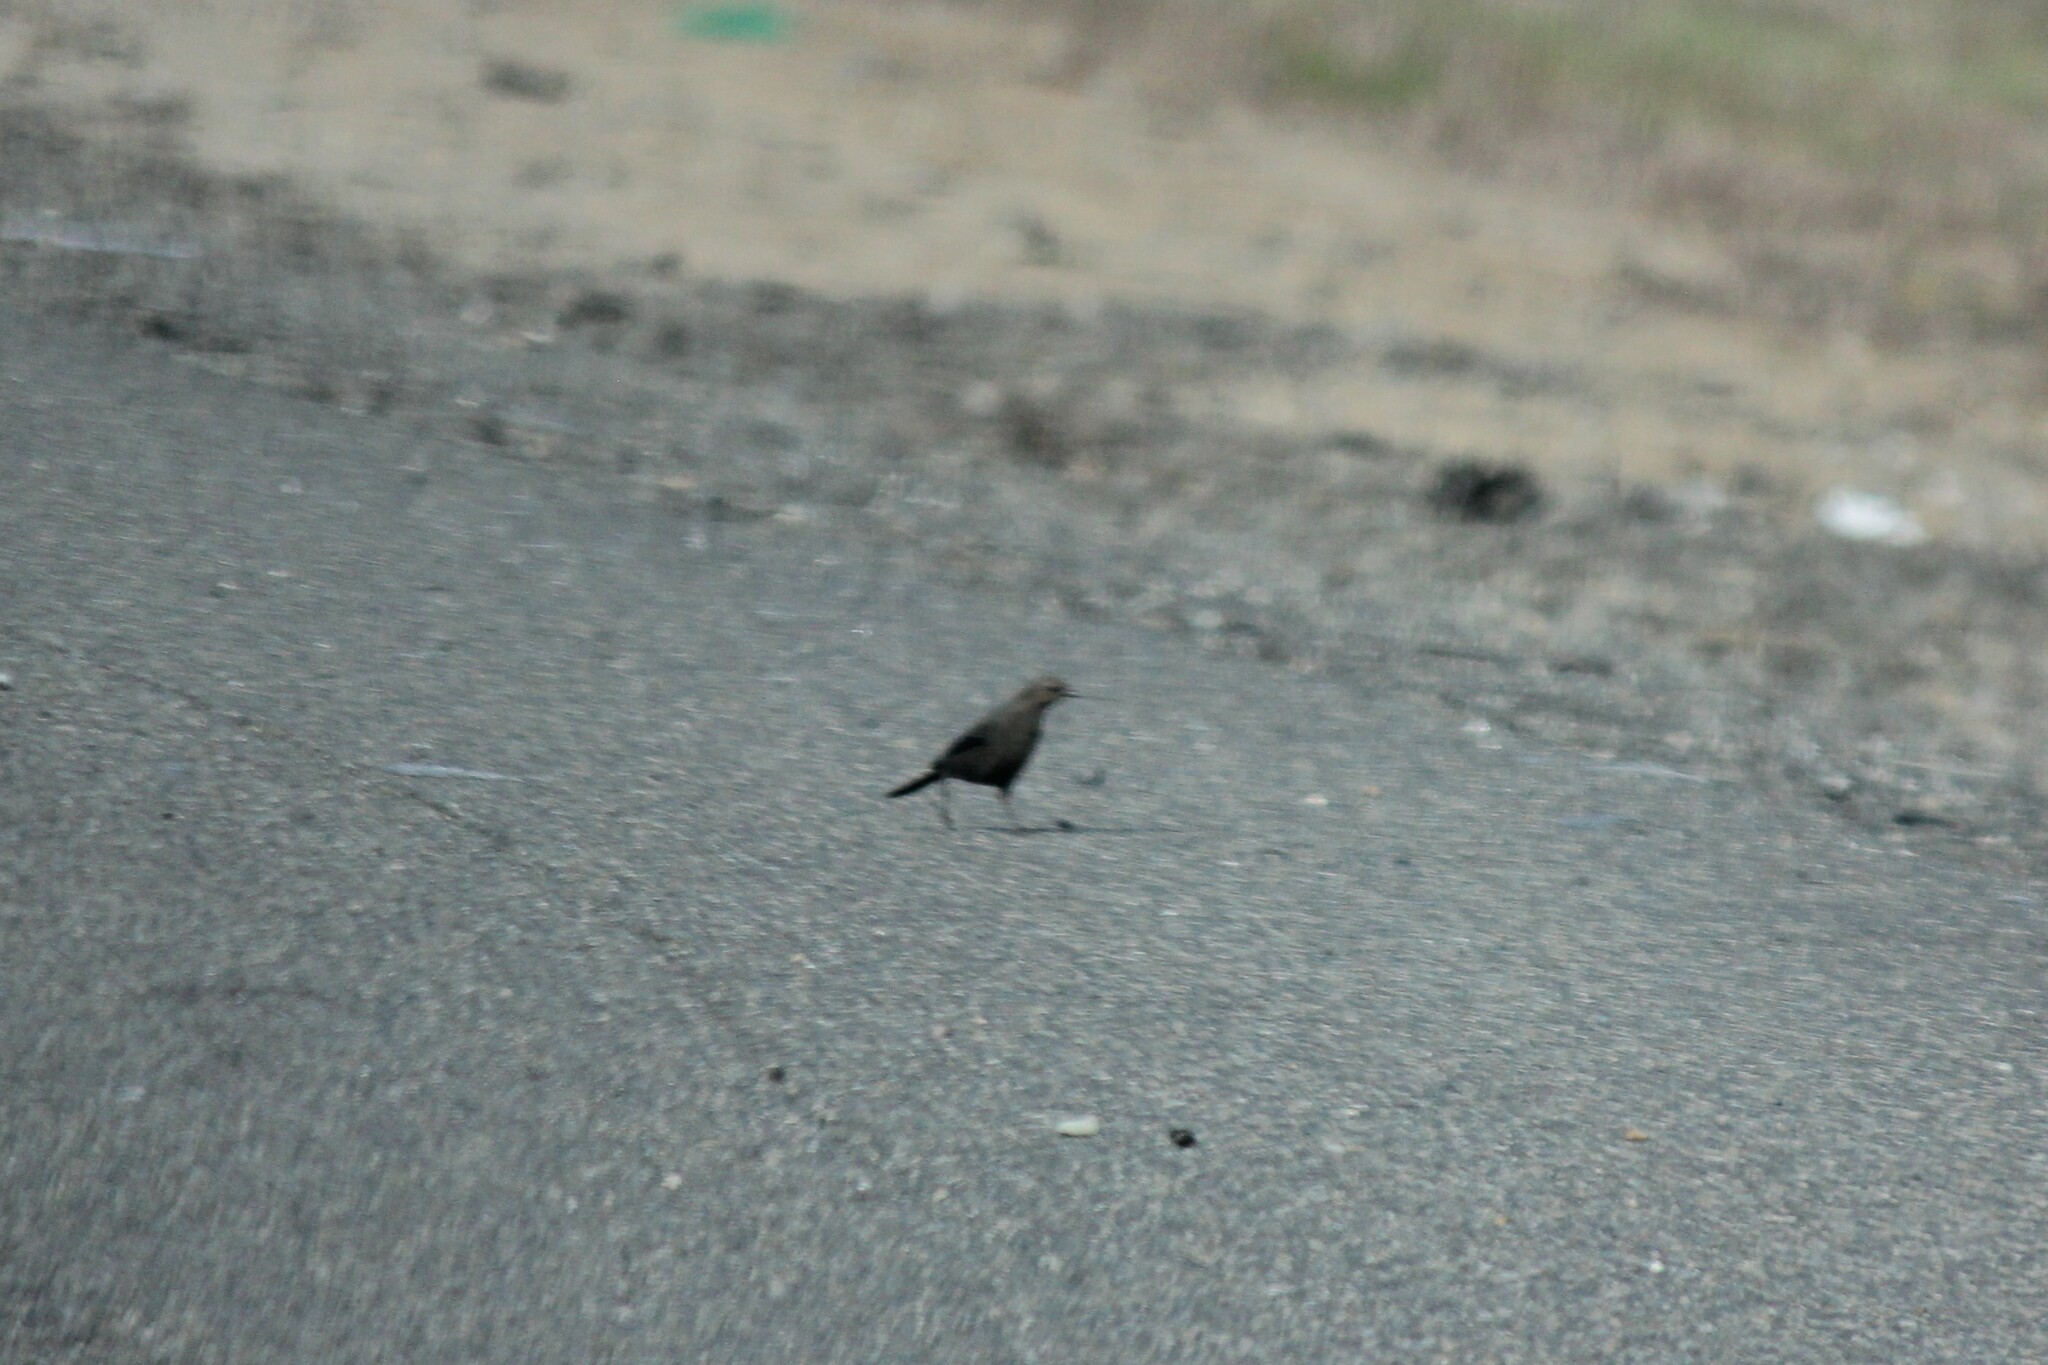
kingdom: Animalia
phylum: Chordata
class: Aves
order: Passeriformes
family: Icteridae
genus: Euphagus
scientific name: Euphagus cyanocephalus
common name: Brewer's blackbird
